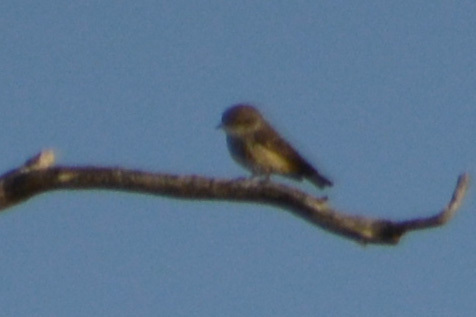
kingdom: Animalia
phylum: Chordata
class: Aves
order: Passeriformes
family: Tyrannidae
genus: Pyrocephalus
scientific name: Pyrocephalus rubinus
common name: Vermilion flycatcher
